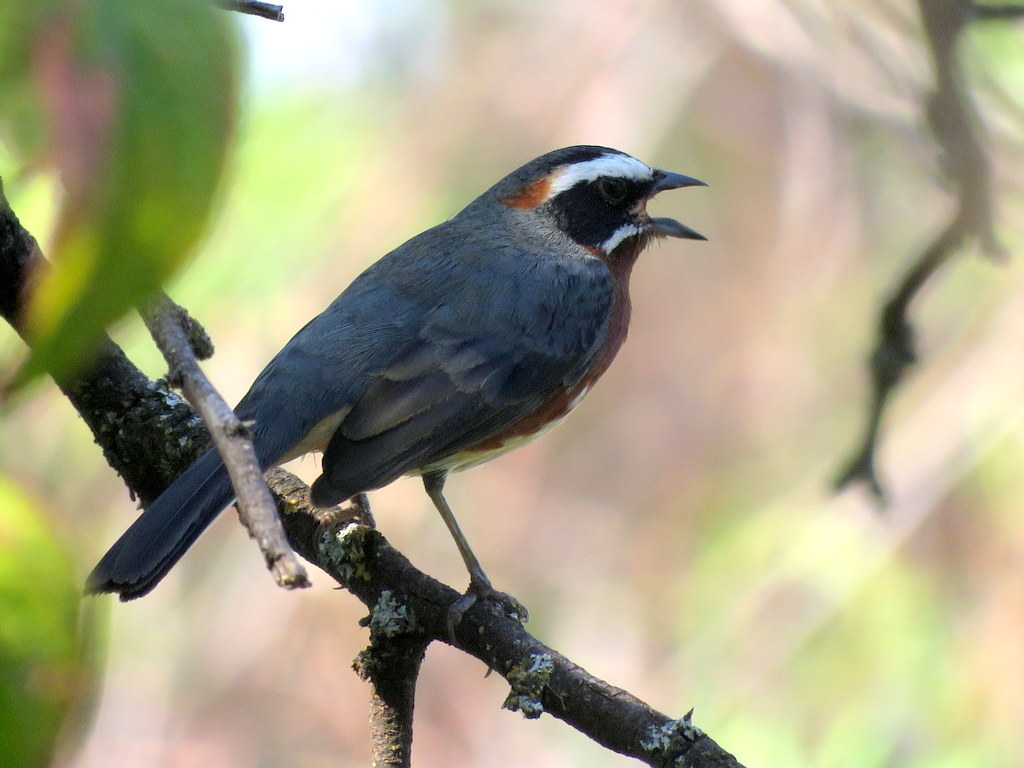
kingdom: Animalia
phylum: Chordata
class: Aves
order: Passeriformes
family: Thraupidae
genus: Poospiza
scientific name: Poospiza whitii
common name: Black-and-chestnut warbling finch
